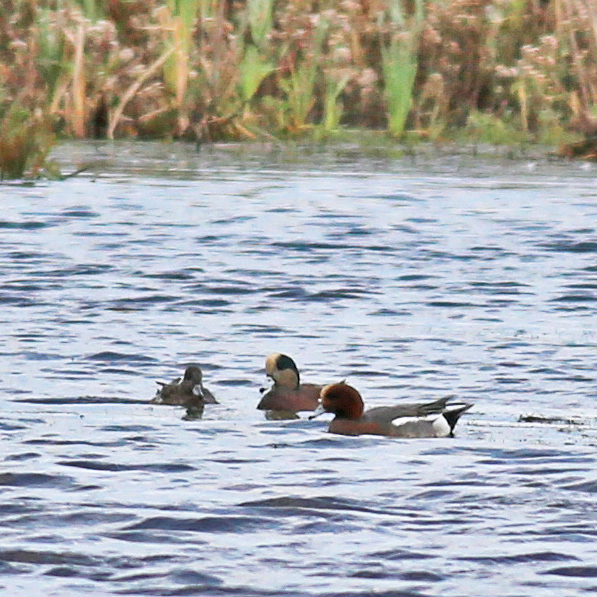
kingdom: Animalia
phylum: Chordata
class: Aves
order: Anseriformes
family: Anatidae
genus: Mareca
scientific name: Mareca americana
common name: American wigeon
